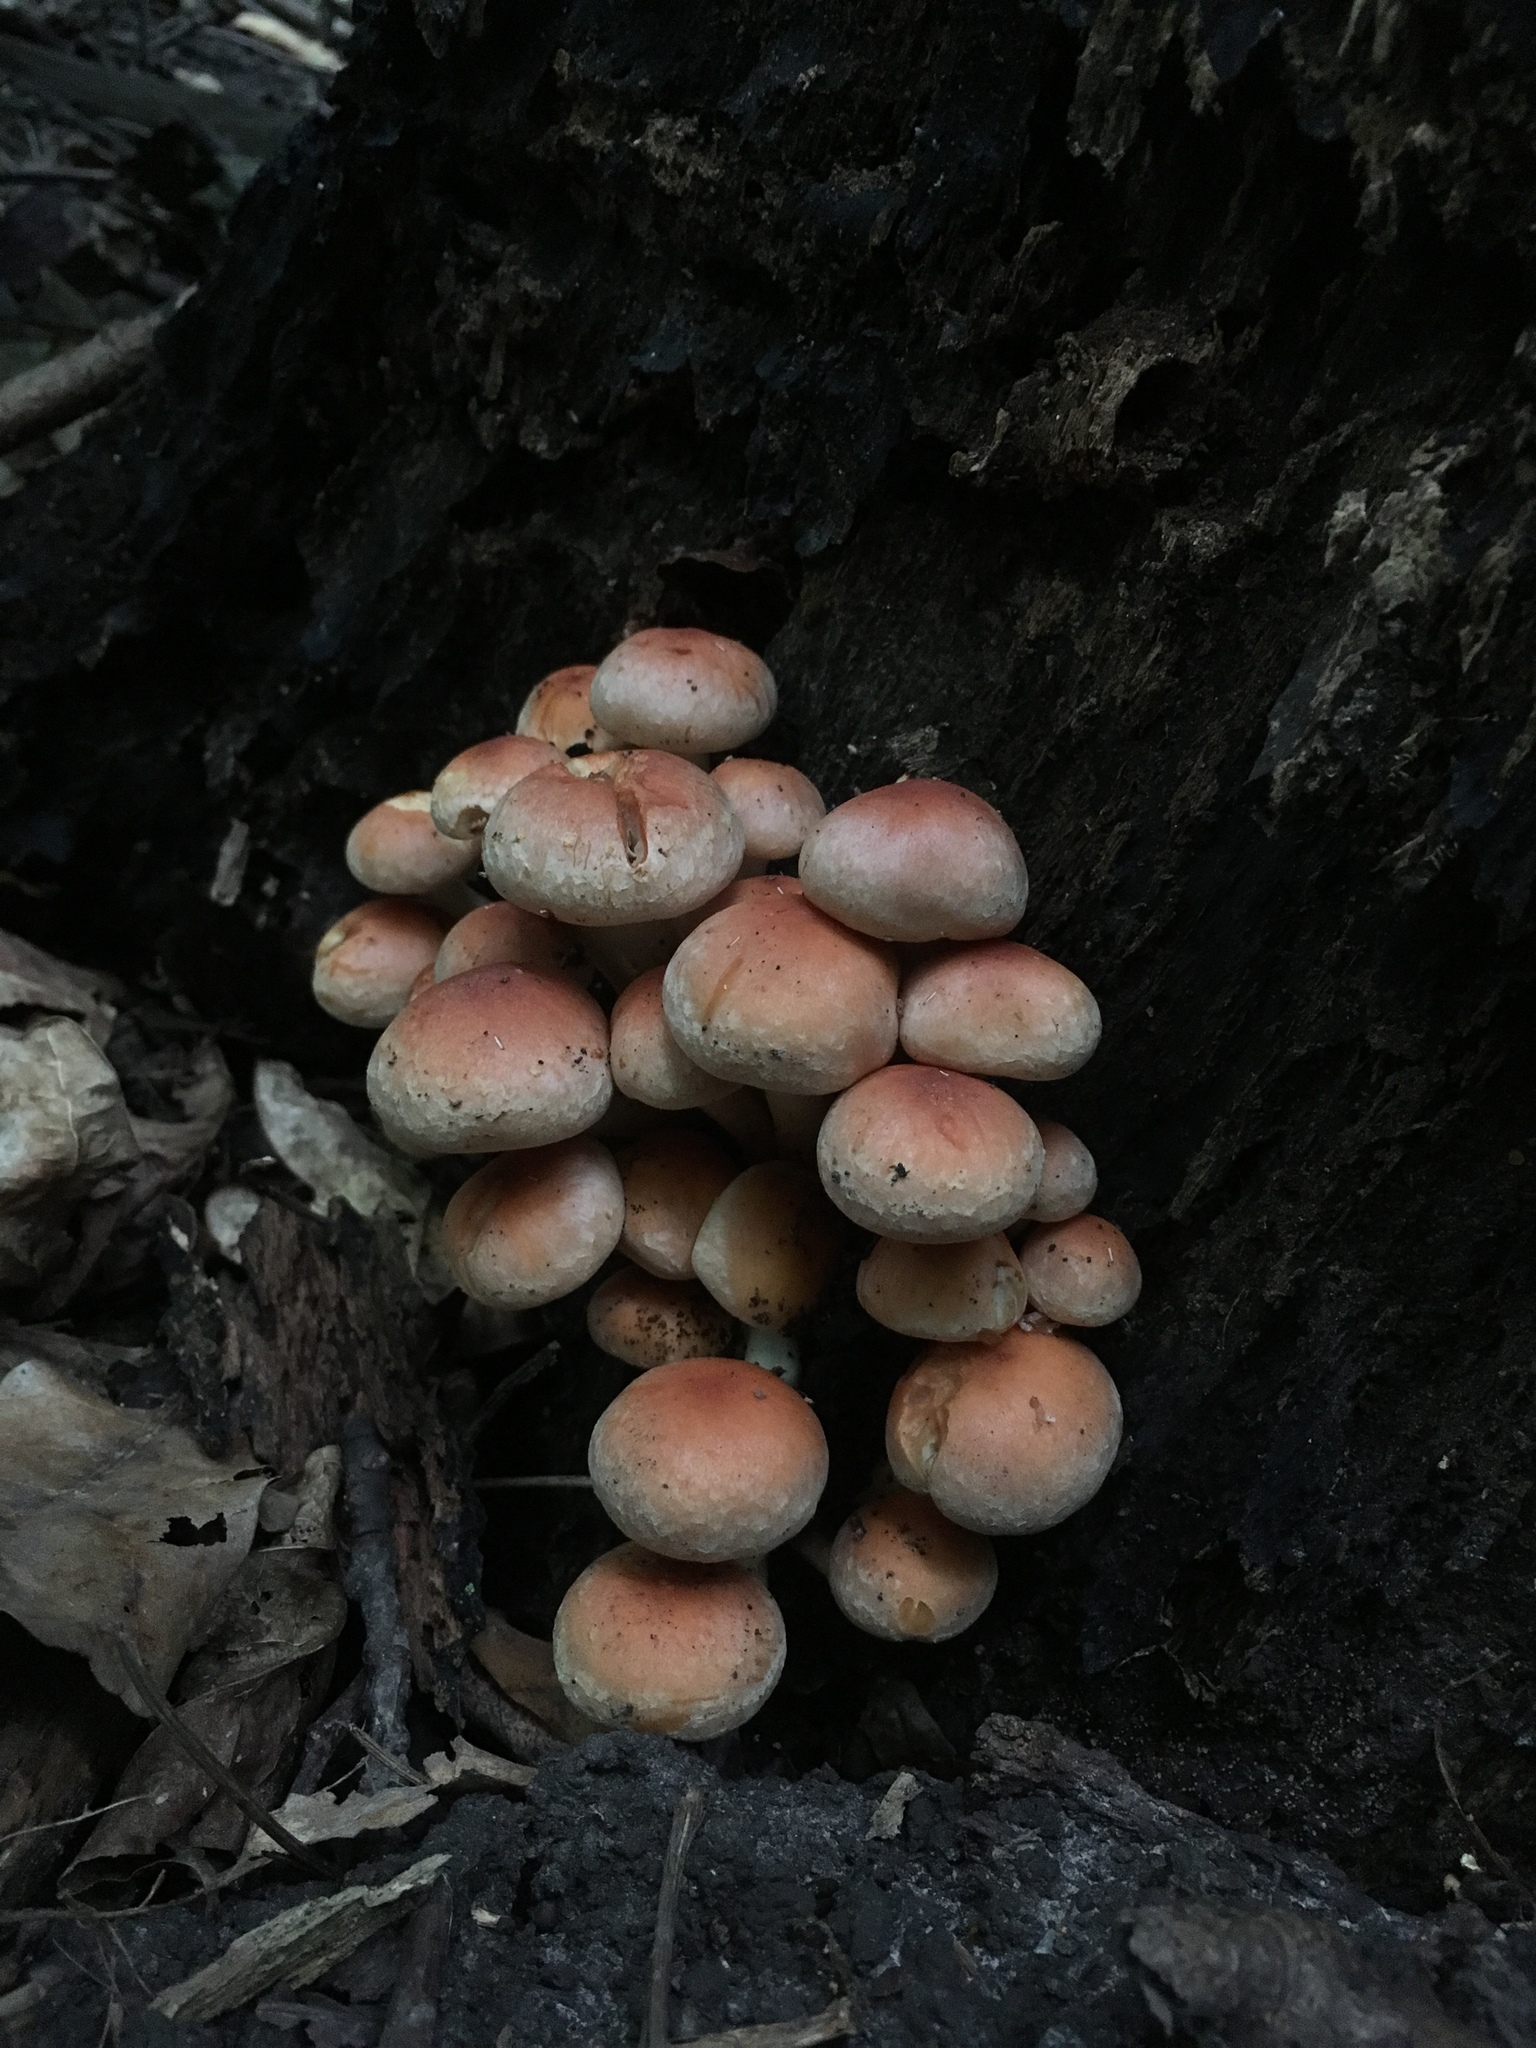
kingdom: Fungi
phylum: Basidiomycota
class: Agaricomycetes
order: Agaricales
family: Strophariaceae
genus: Hypholoma
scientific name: Hypholoma lateritium
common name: Brick caps
